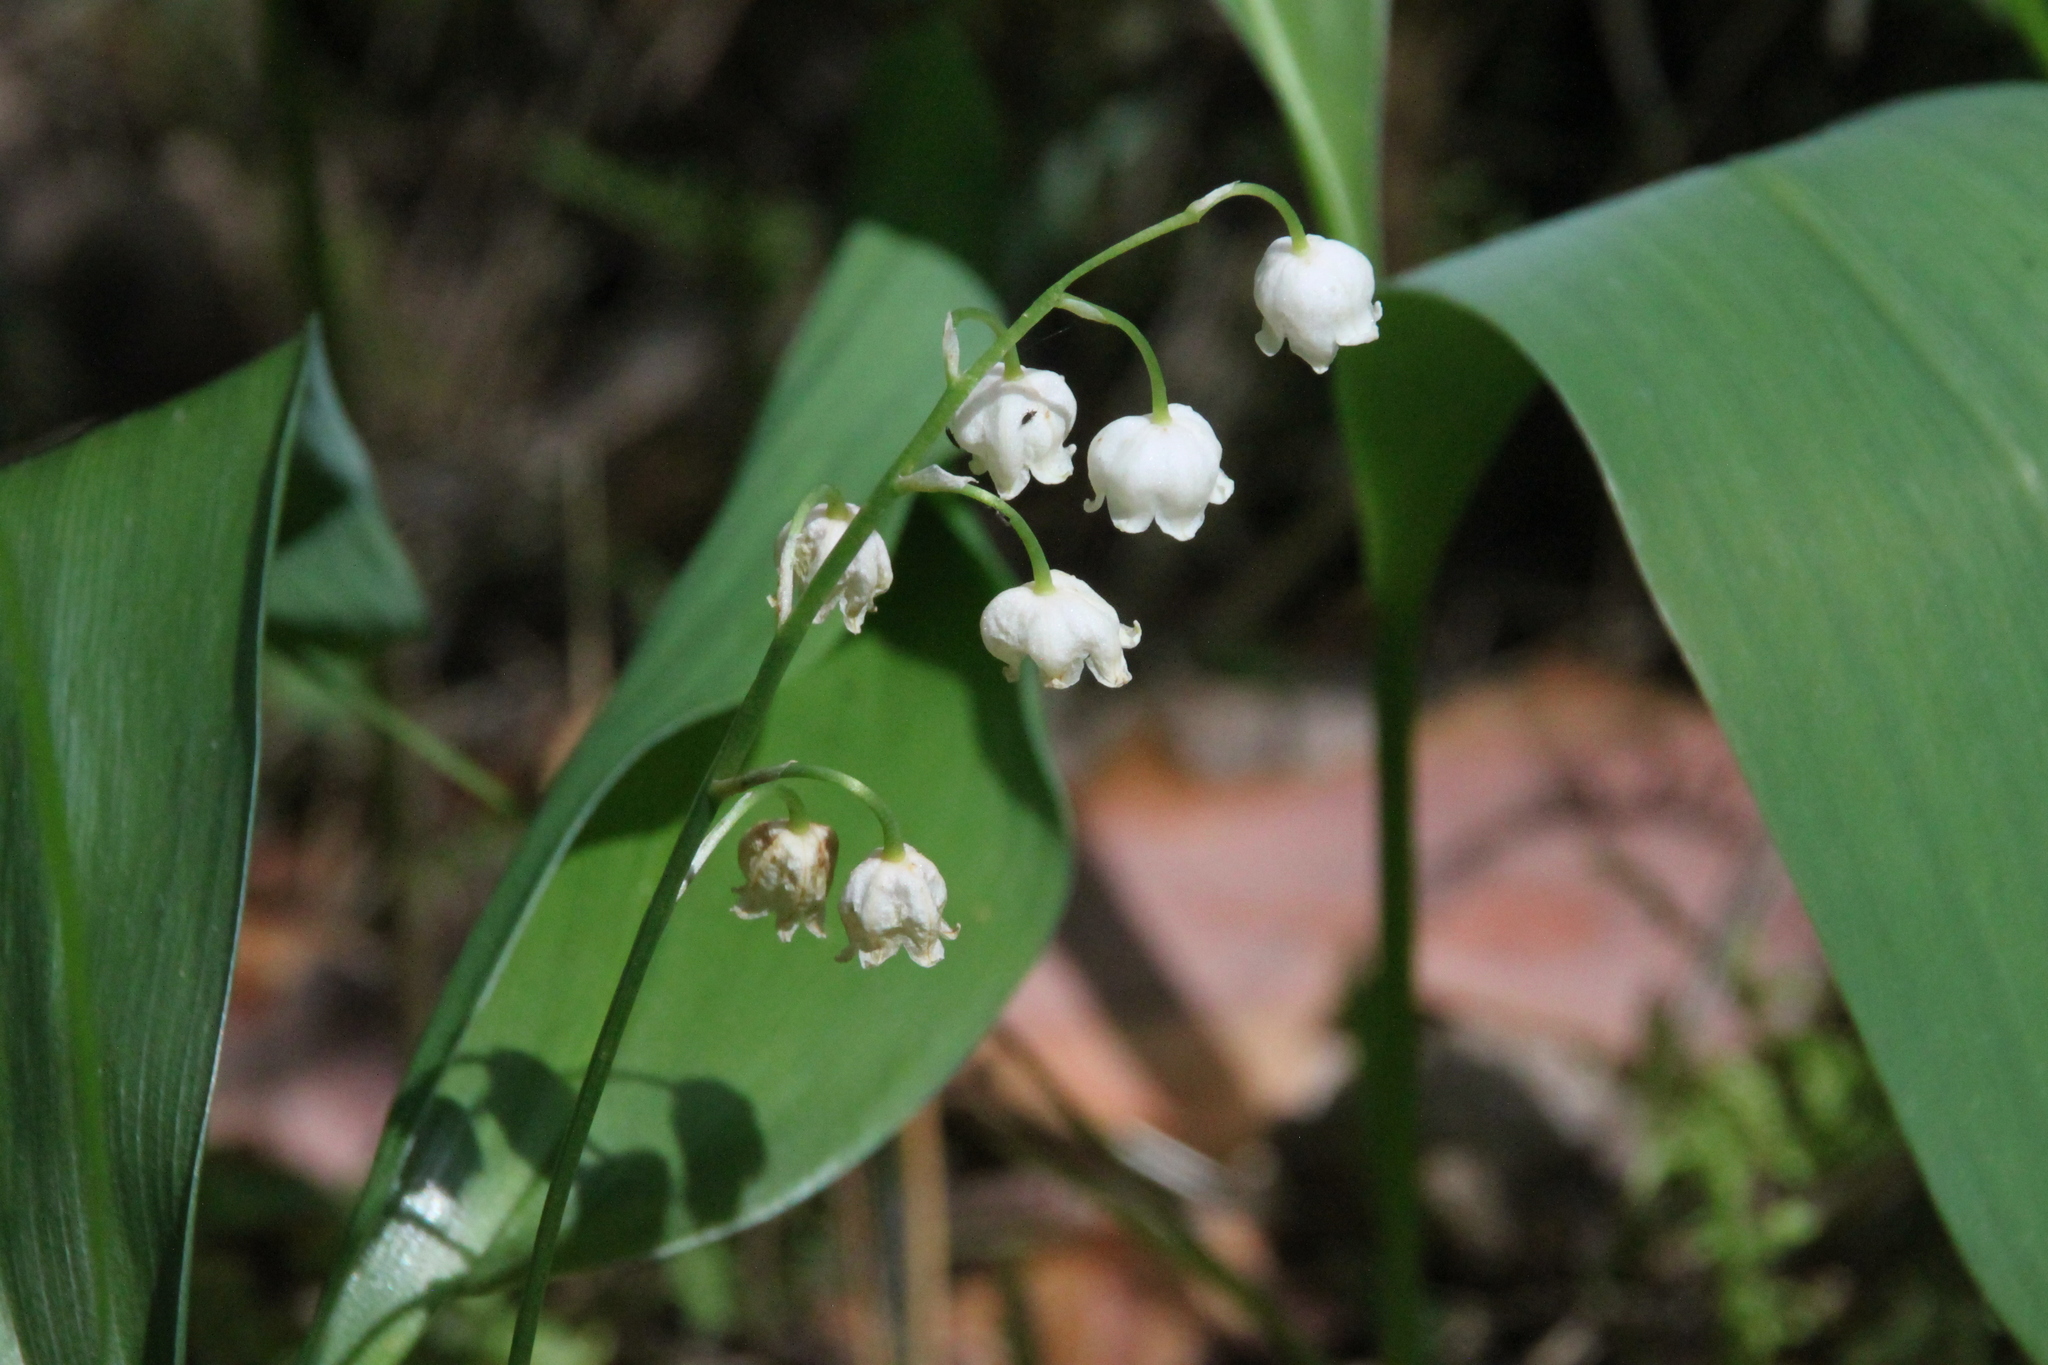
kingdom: Plantae
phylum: Tracheophyta
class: Liliopsida
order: Asparagales
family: Asparagaceae
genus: Convallaria
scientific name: Convallaria majalis
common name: Lily-of-the-valley
